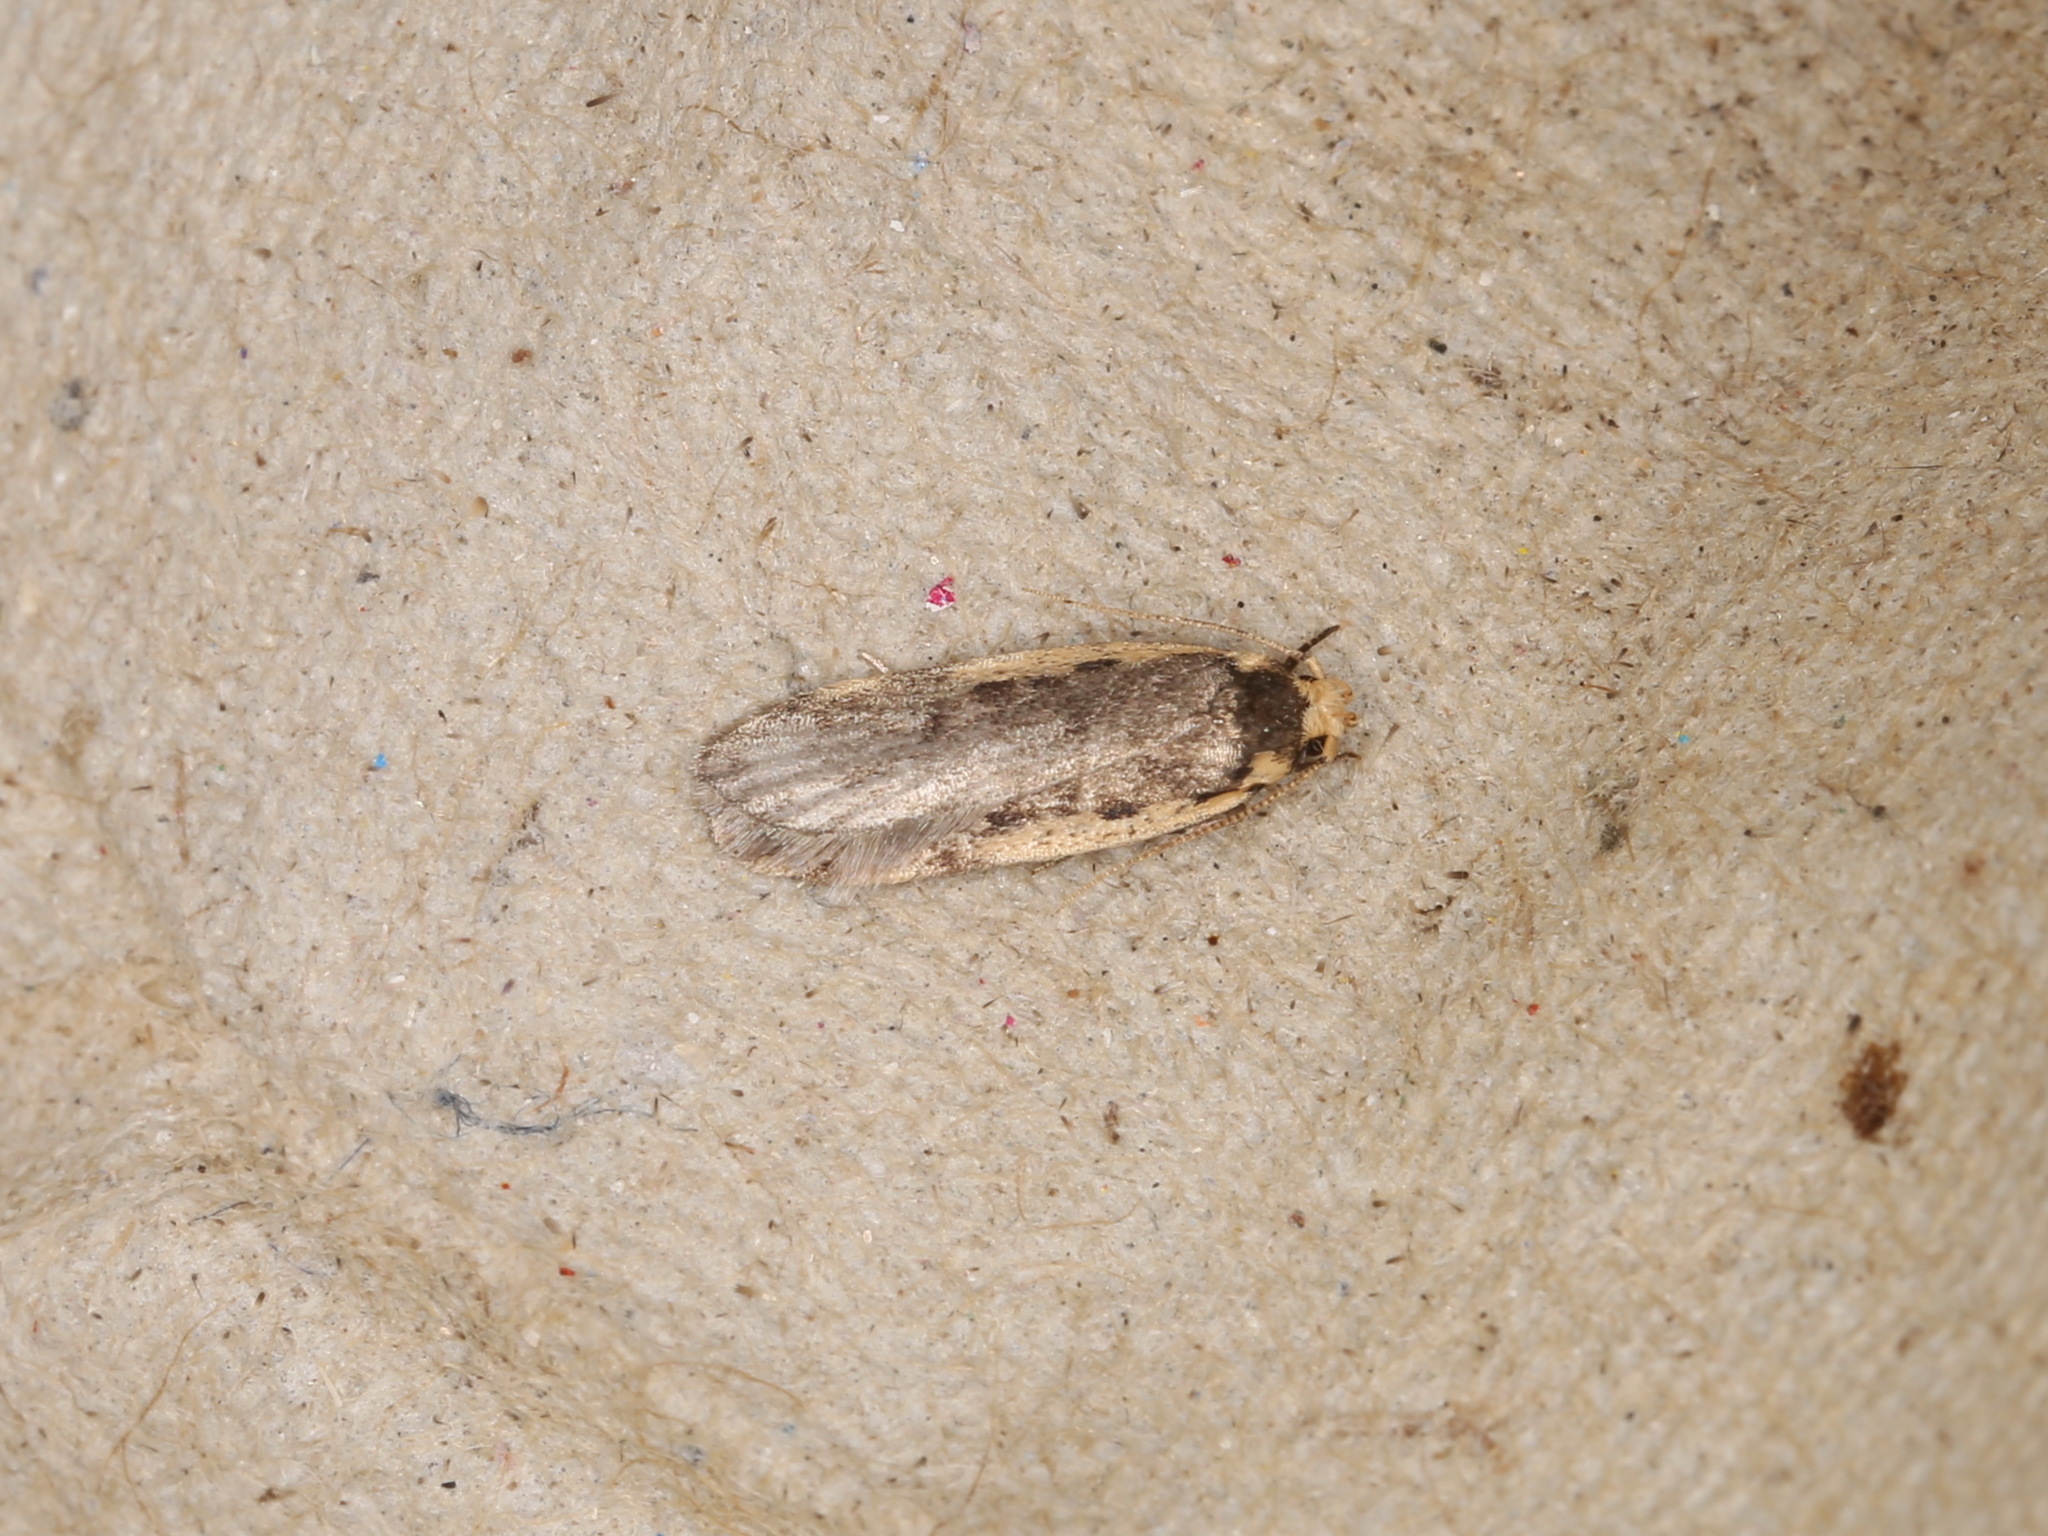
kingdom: Animalia
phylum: Arthropoda
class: Insecta
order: Lepidoptera
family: Oecophoridae
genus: Hoplostega
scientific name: Hoplostega ochroma
